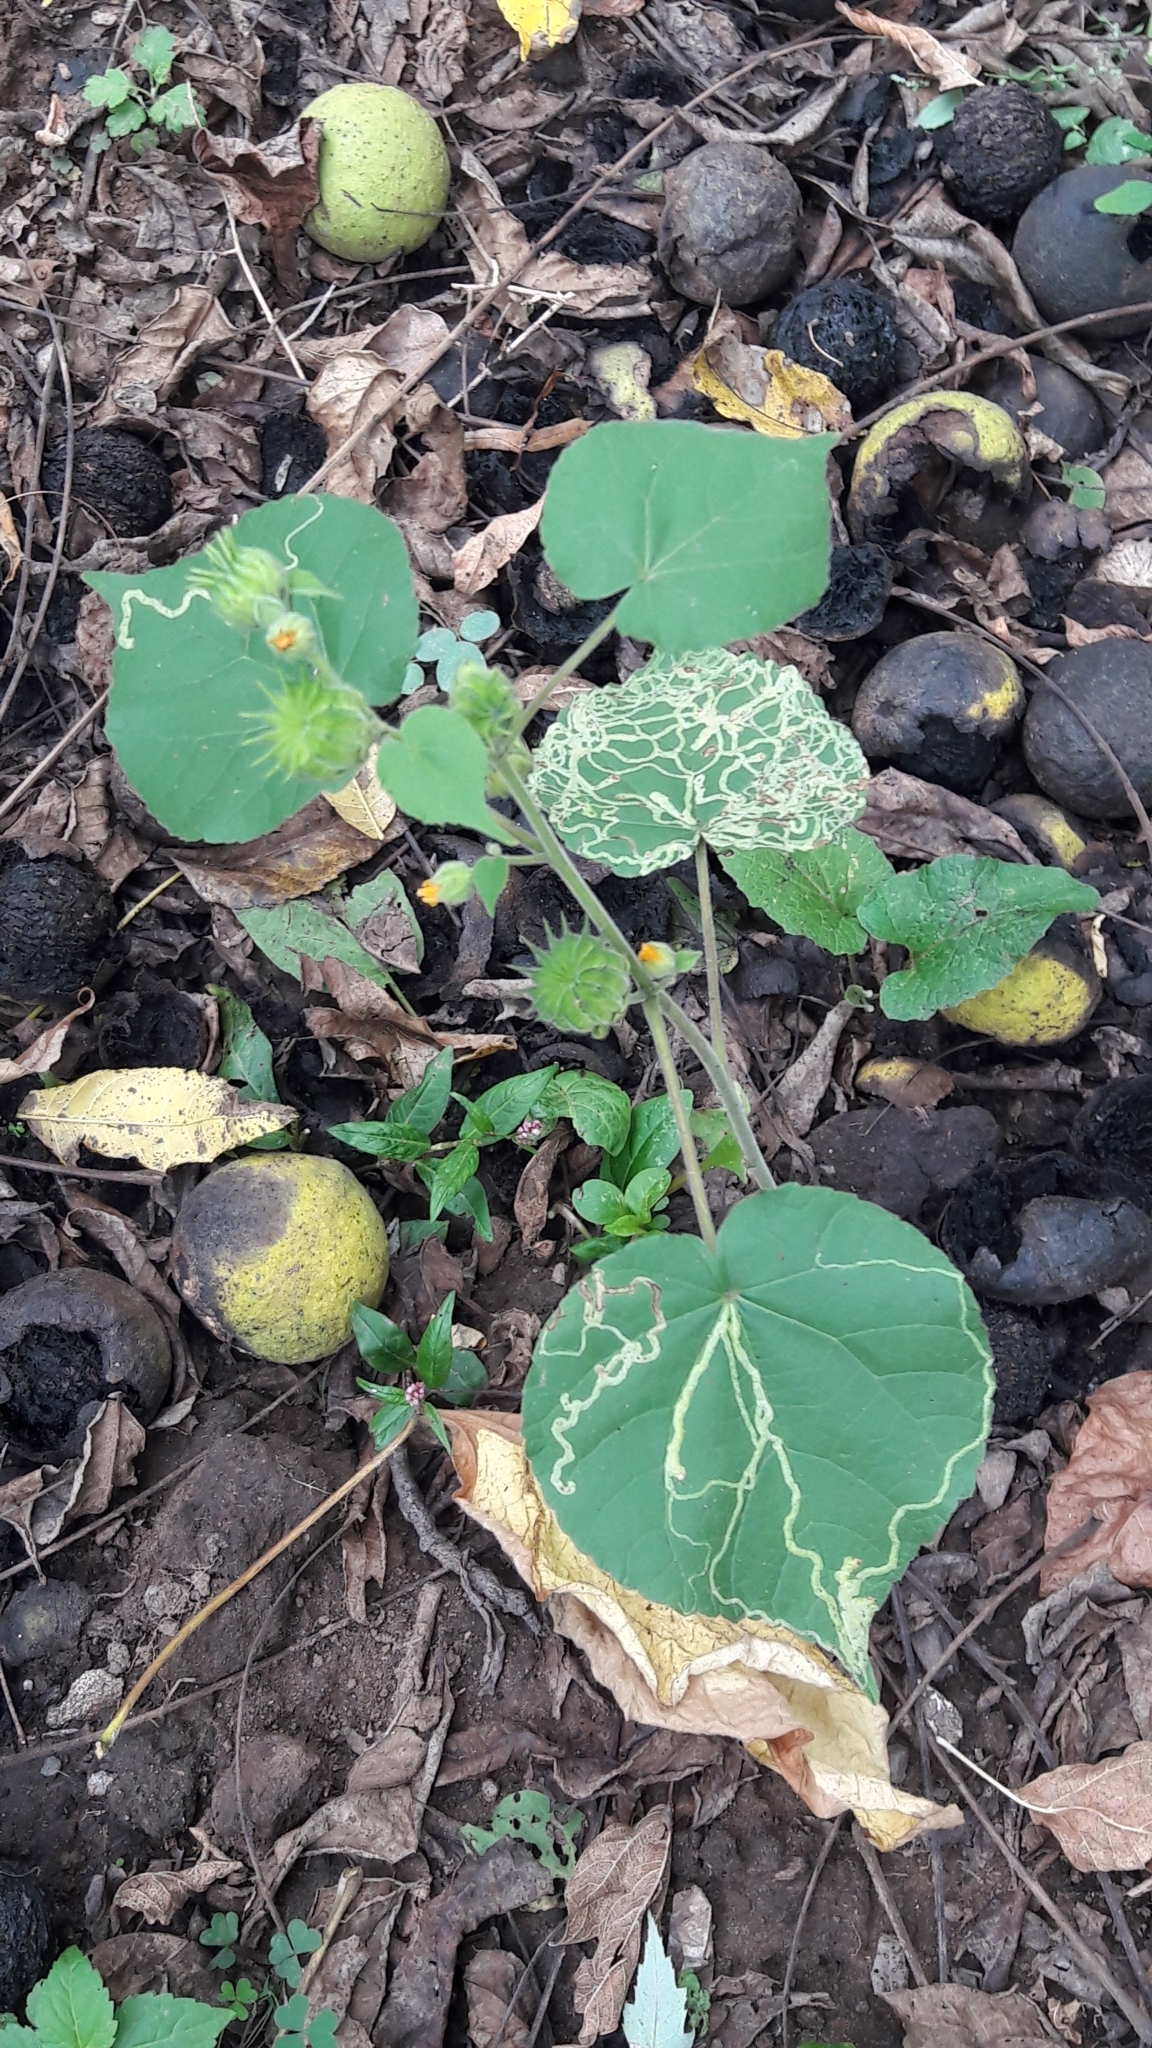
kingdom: Plantae
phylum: Tracheophyta
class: Magnoliopsida
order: Malvales
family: Malvaceae
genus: Abutilon
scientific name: Abutilon theophrasti
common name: Velvetleaf
